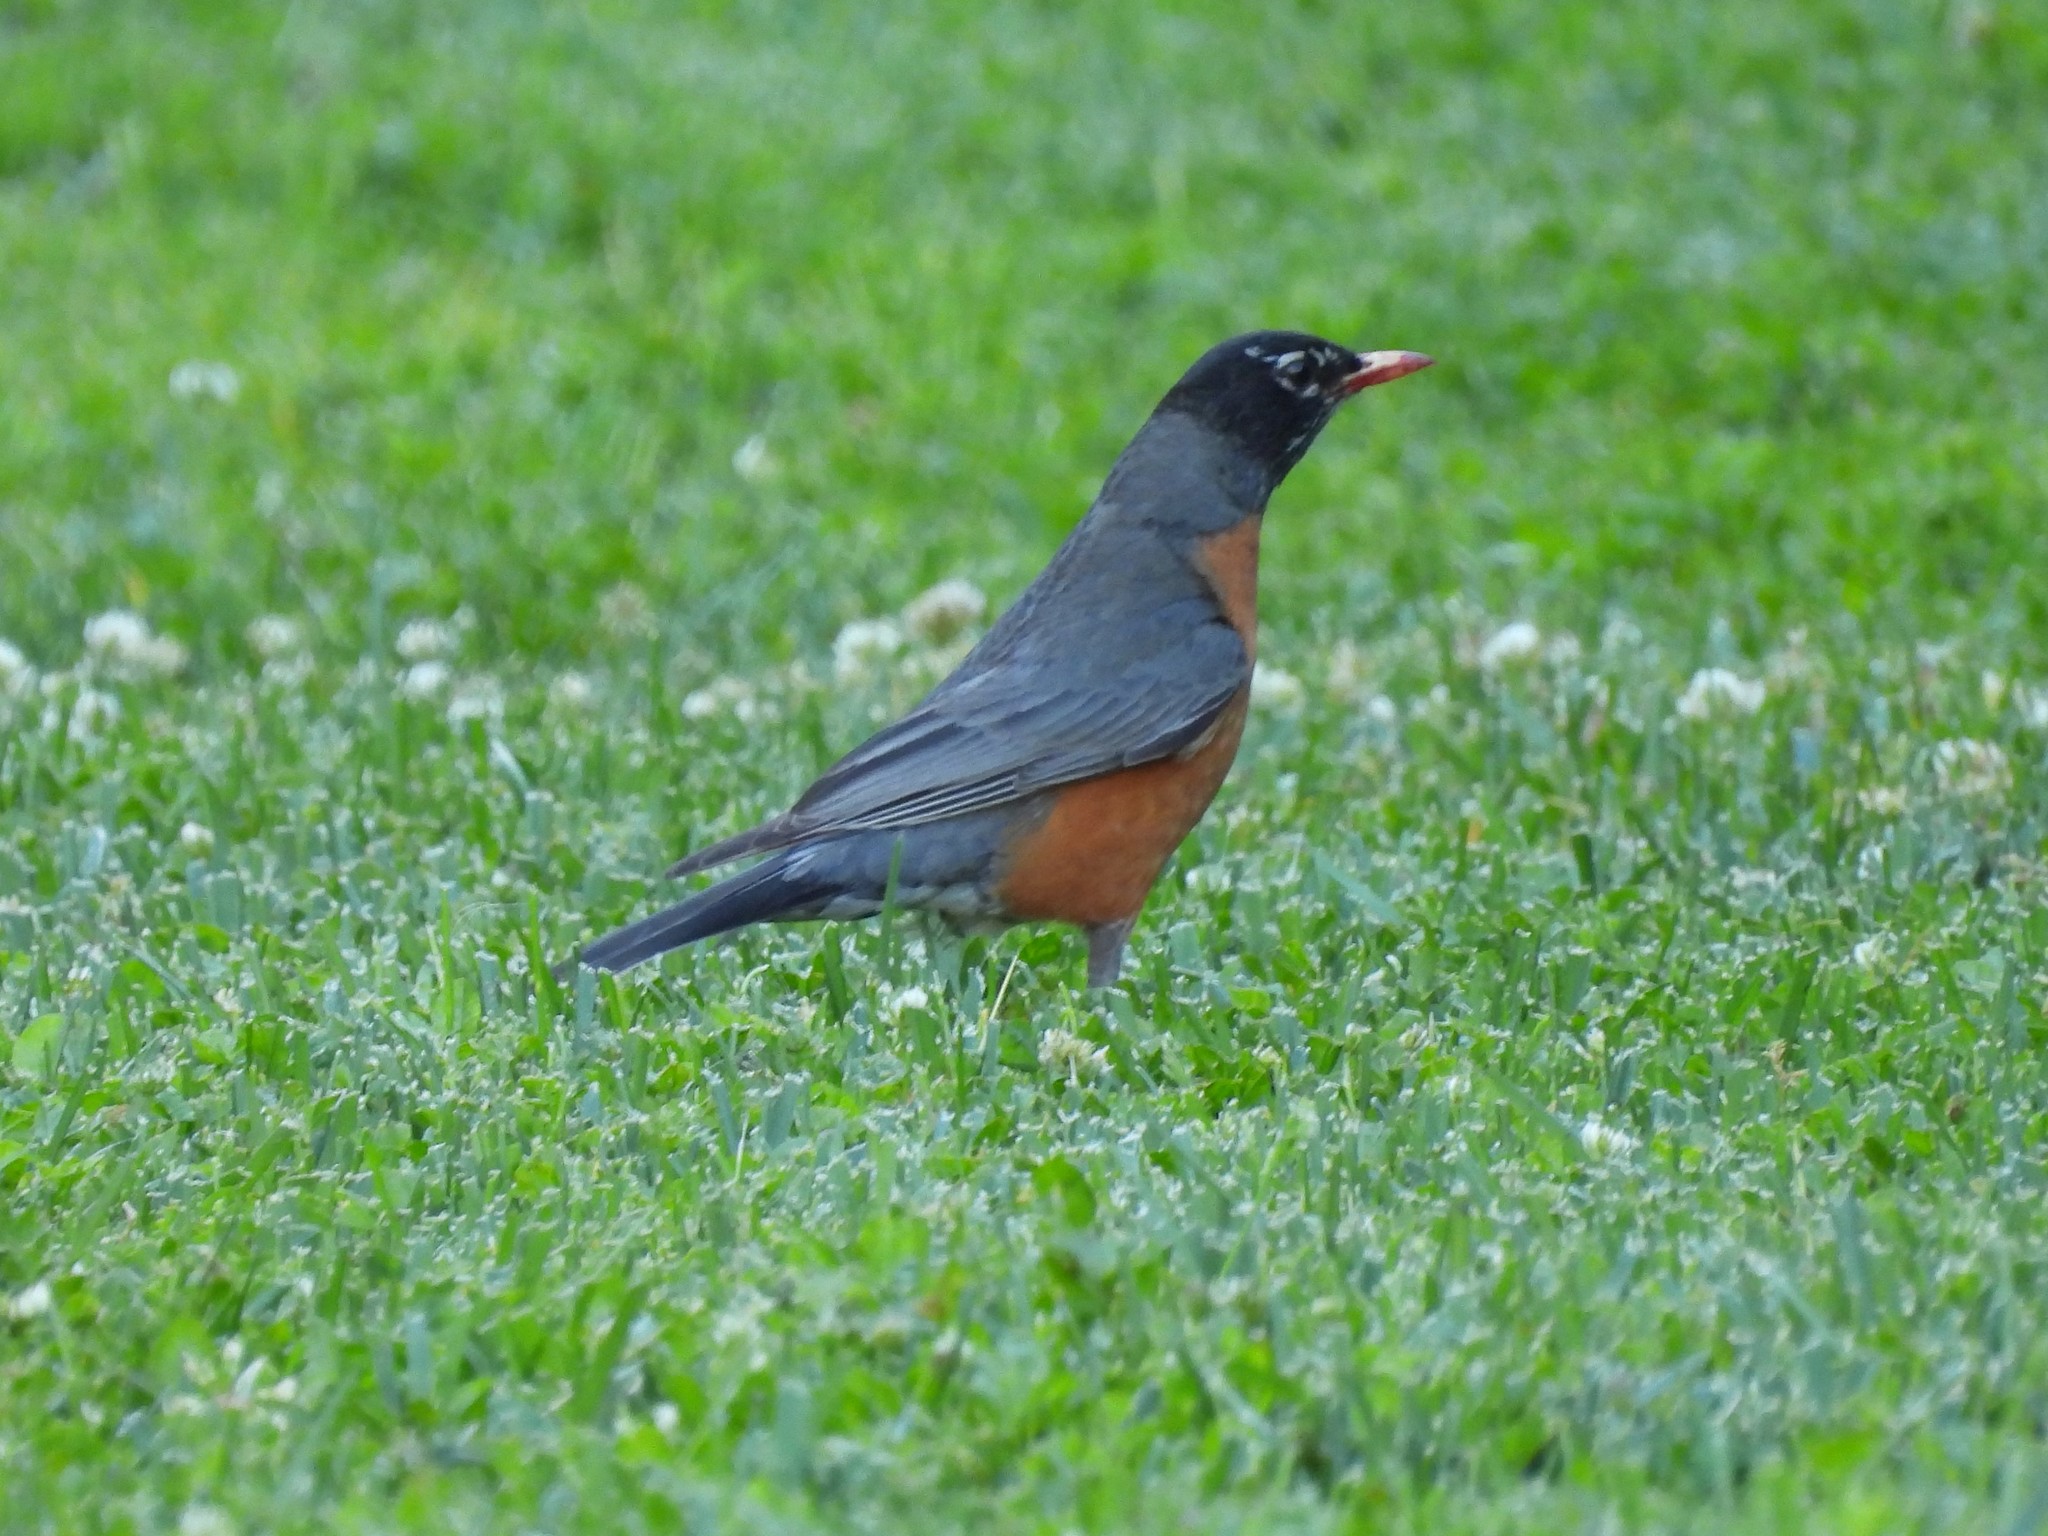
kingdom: Animalia
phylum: Chordata
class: Aves
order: Passeriformes
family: Turdidae
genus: Turdus
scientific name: Turdus migratorius
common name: American robin
